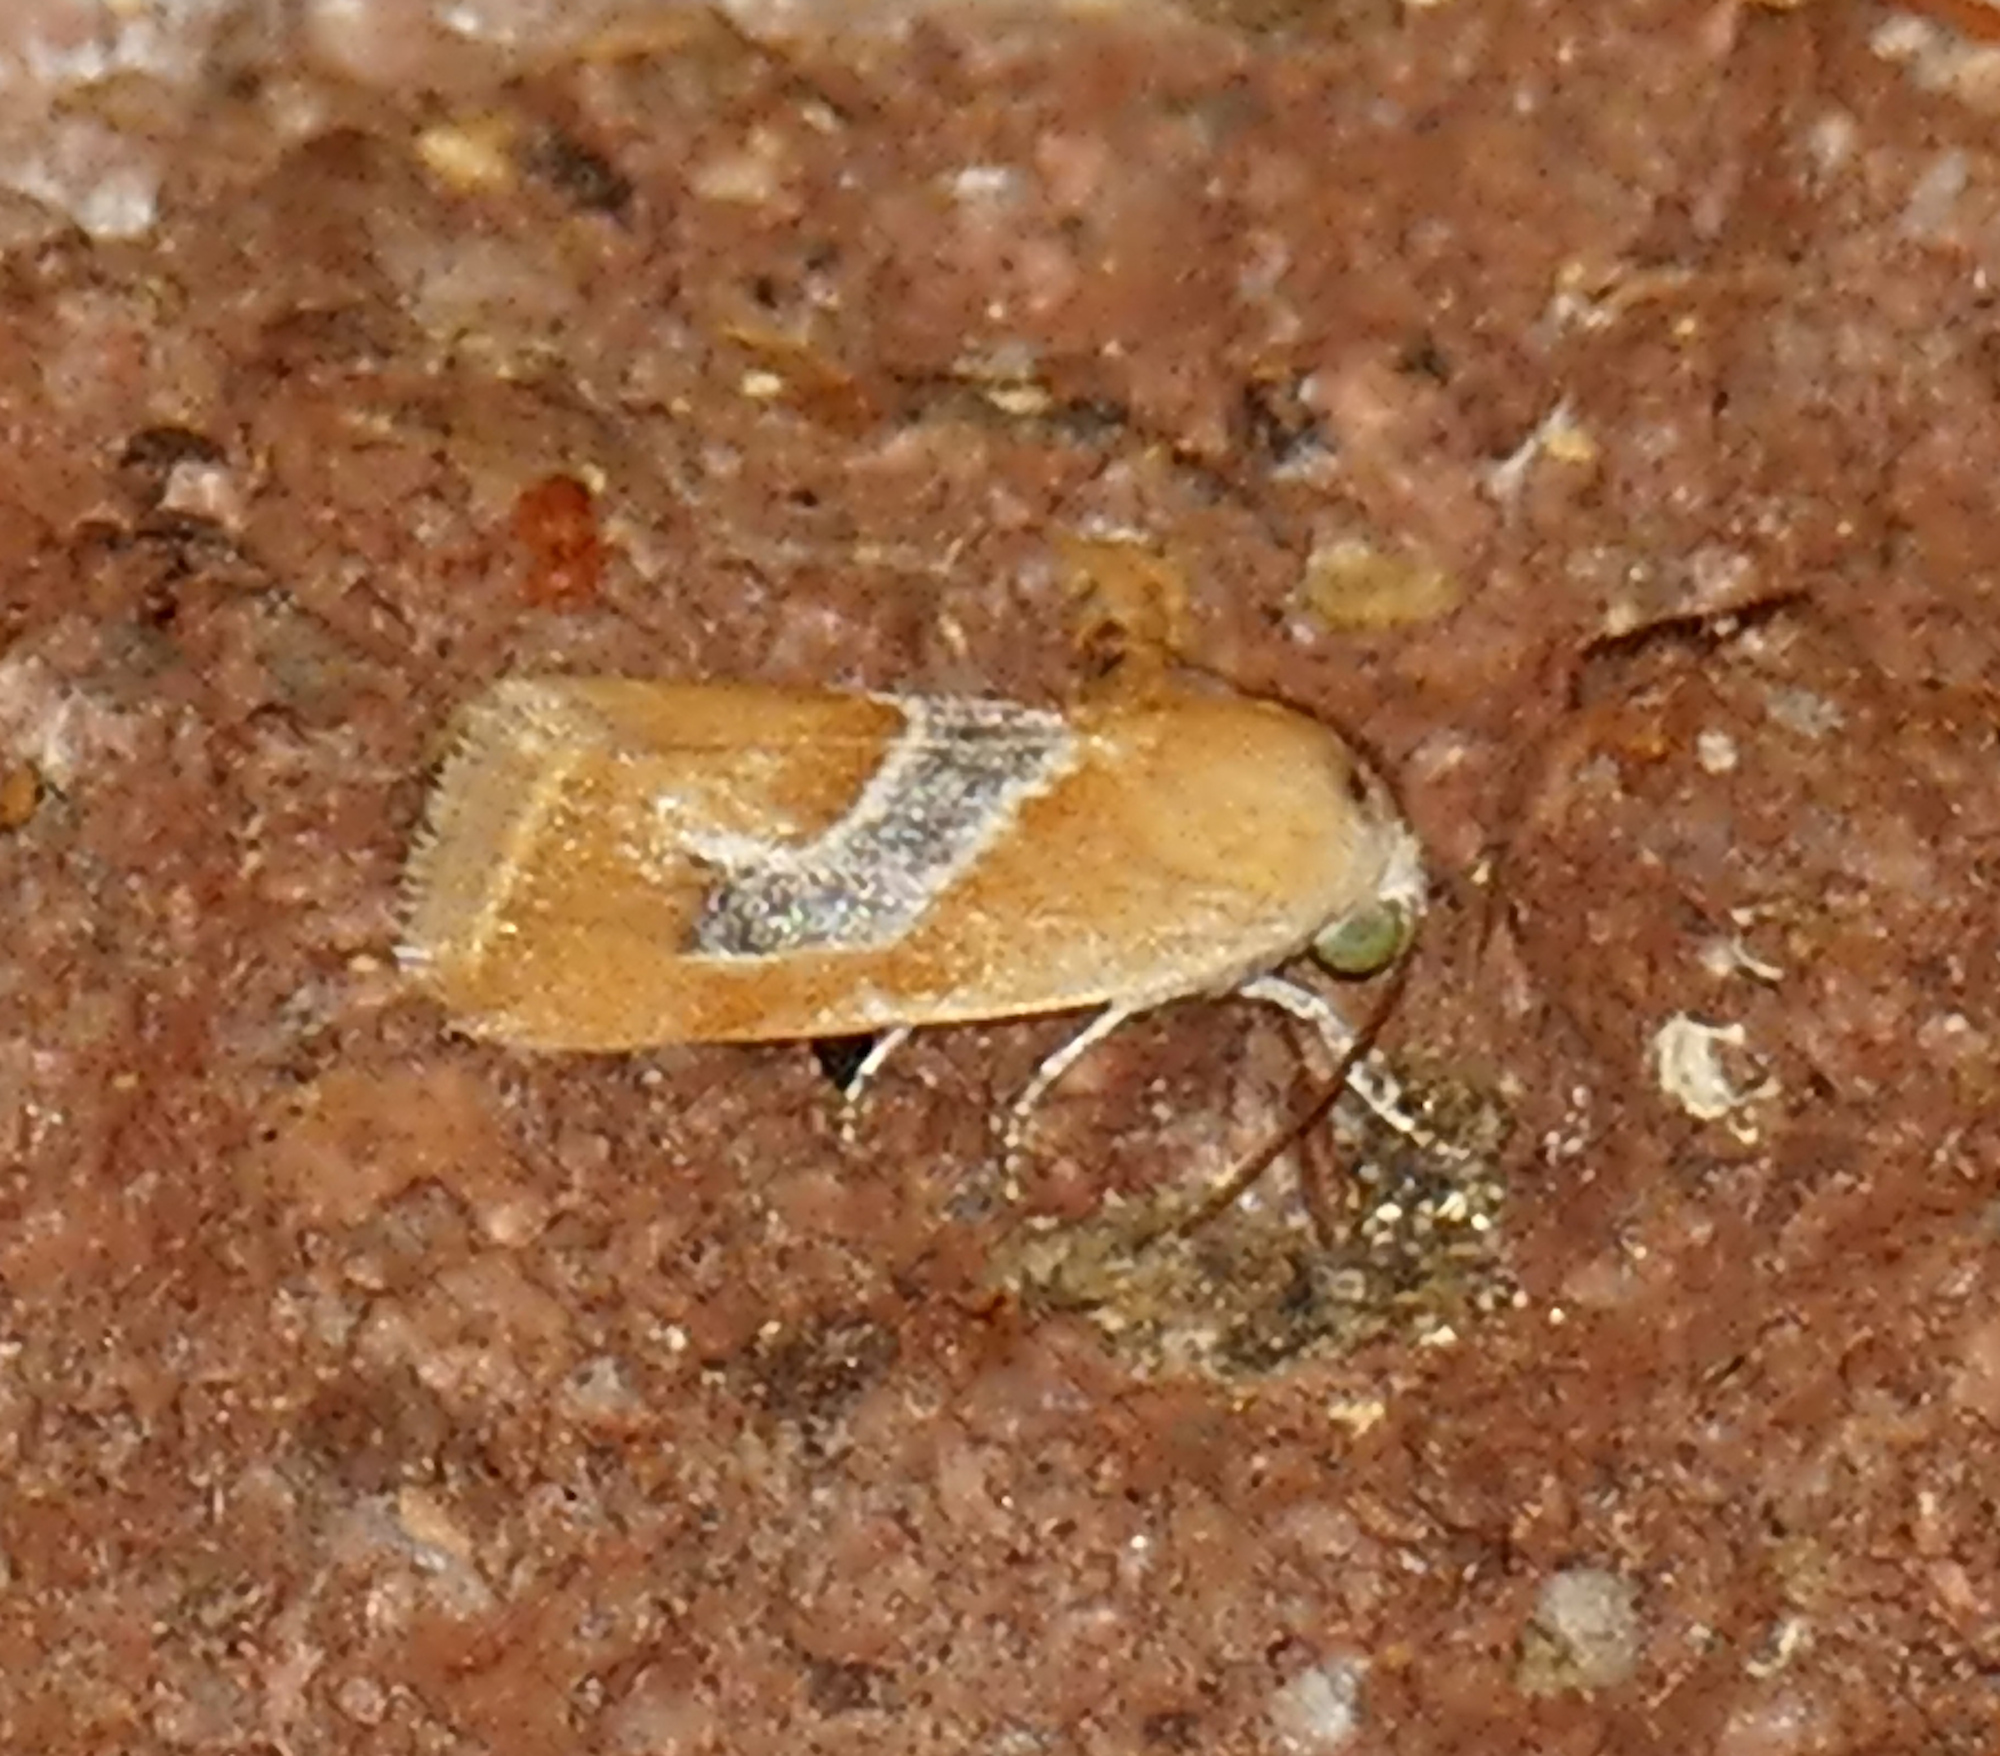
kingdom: Animalia
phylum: Arthropoda
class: Insecta
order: Lepidoptera
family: Noctuidae
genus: Ponometia
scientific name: Ponometia venustula
